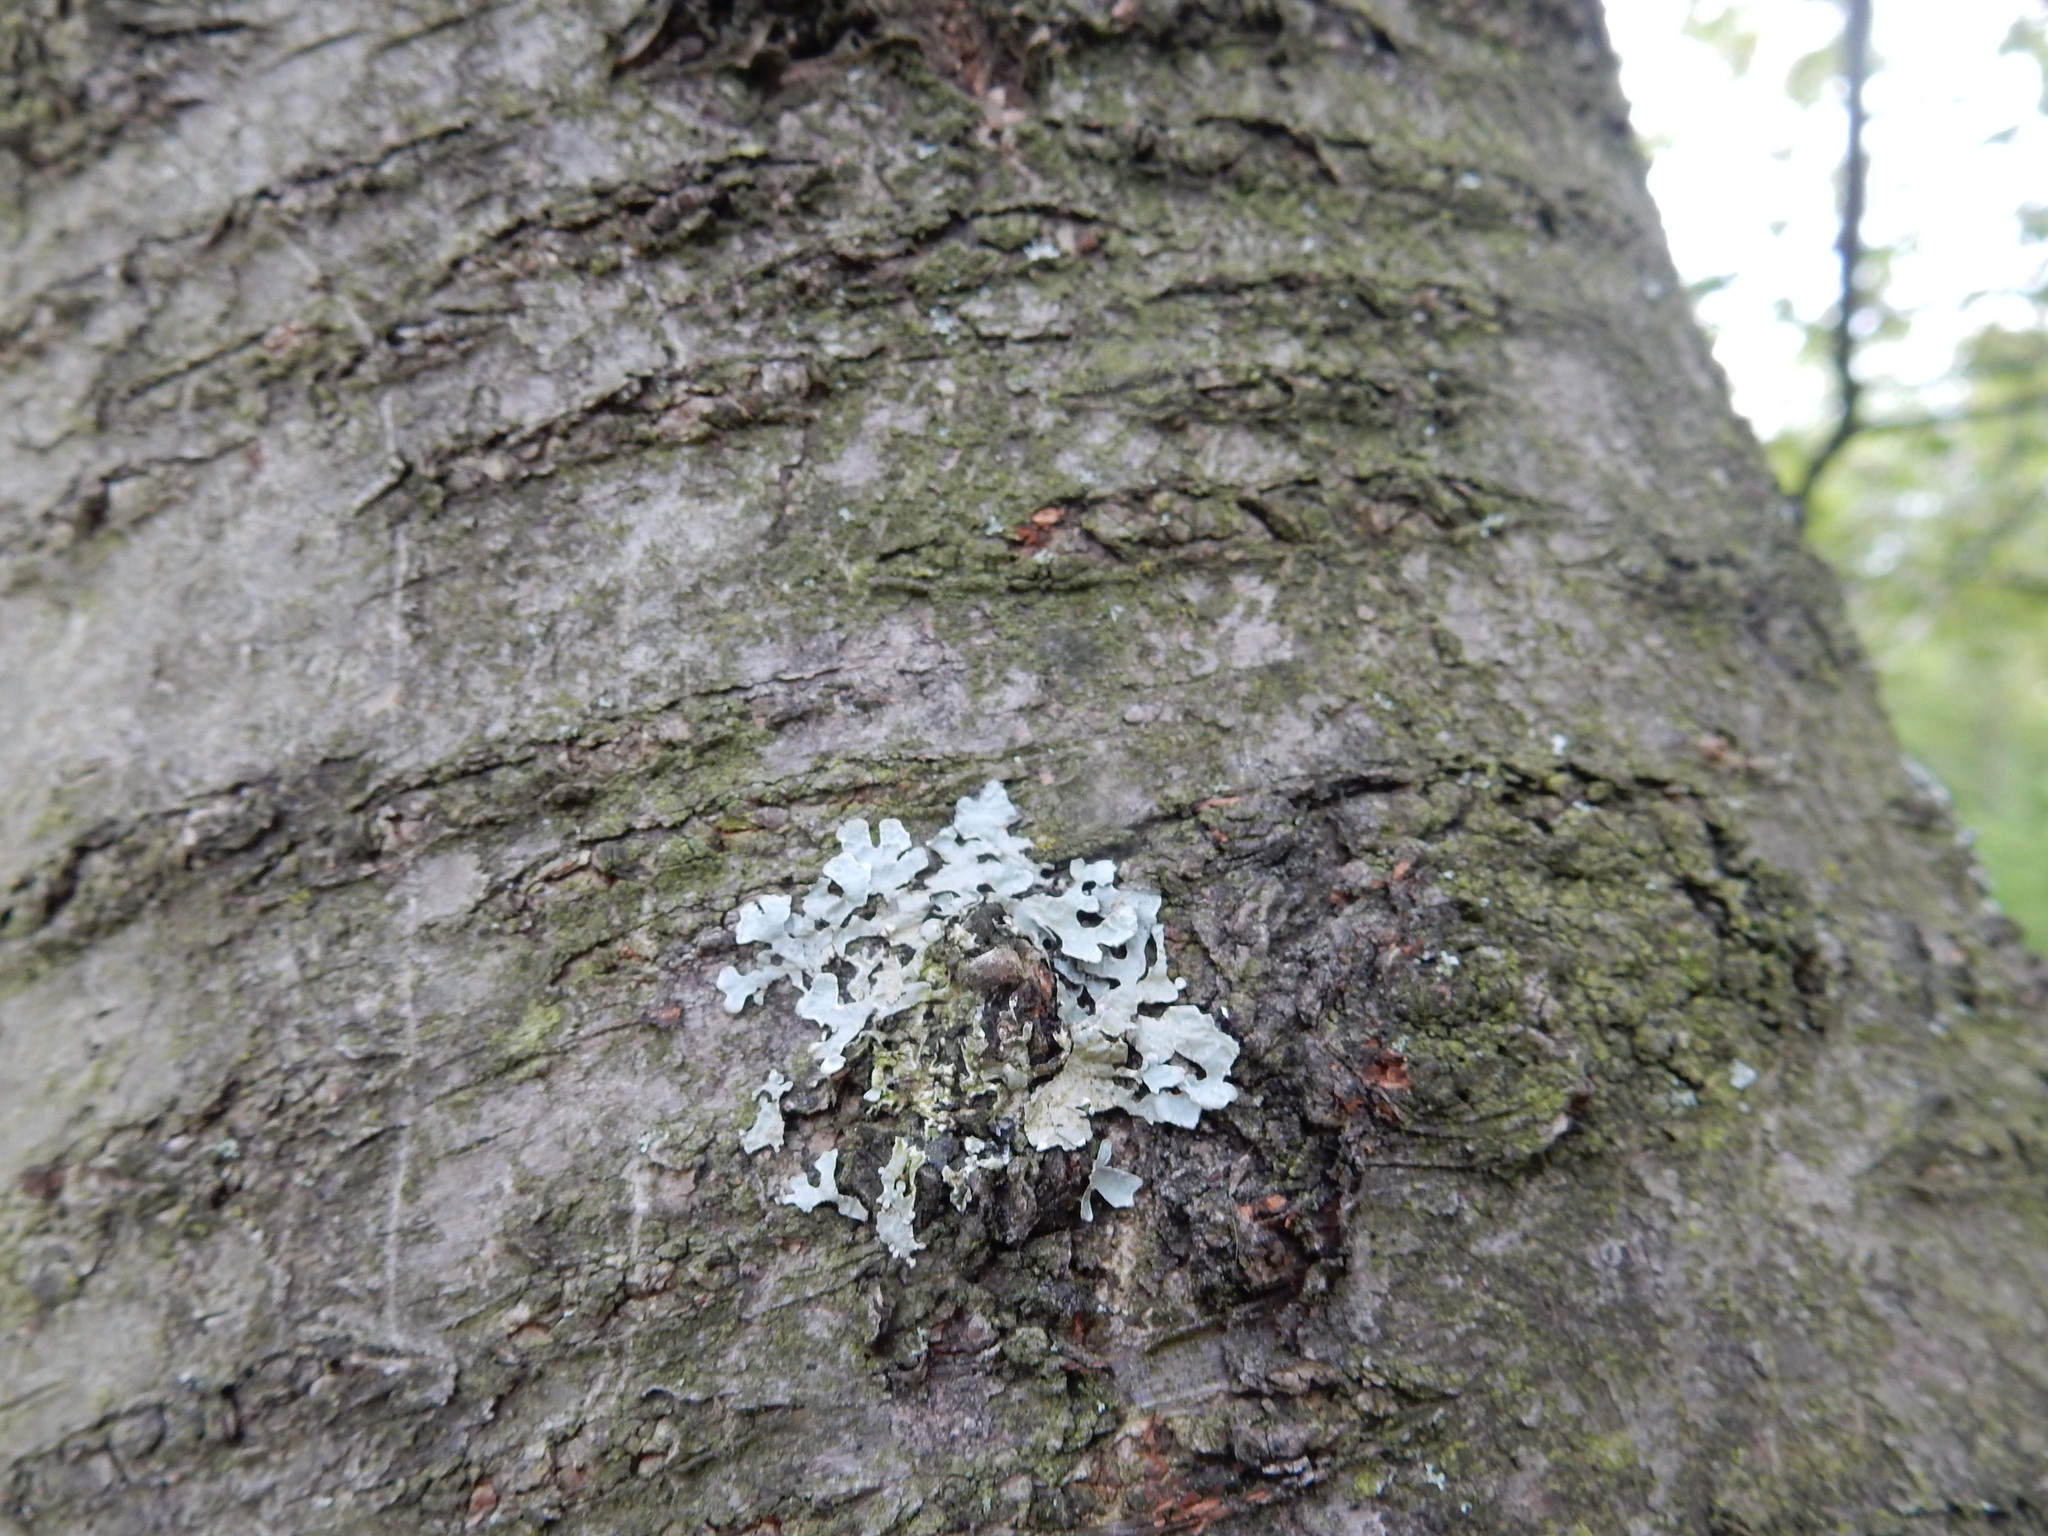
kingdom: Fungi
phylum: Ascomycota
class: Lecanoromycetes
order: Lecanorales
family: Parmeliaceae
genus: Parmelia
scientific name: Parmelia sulcata
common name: Netted shield lichen
